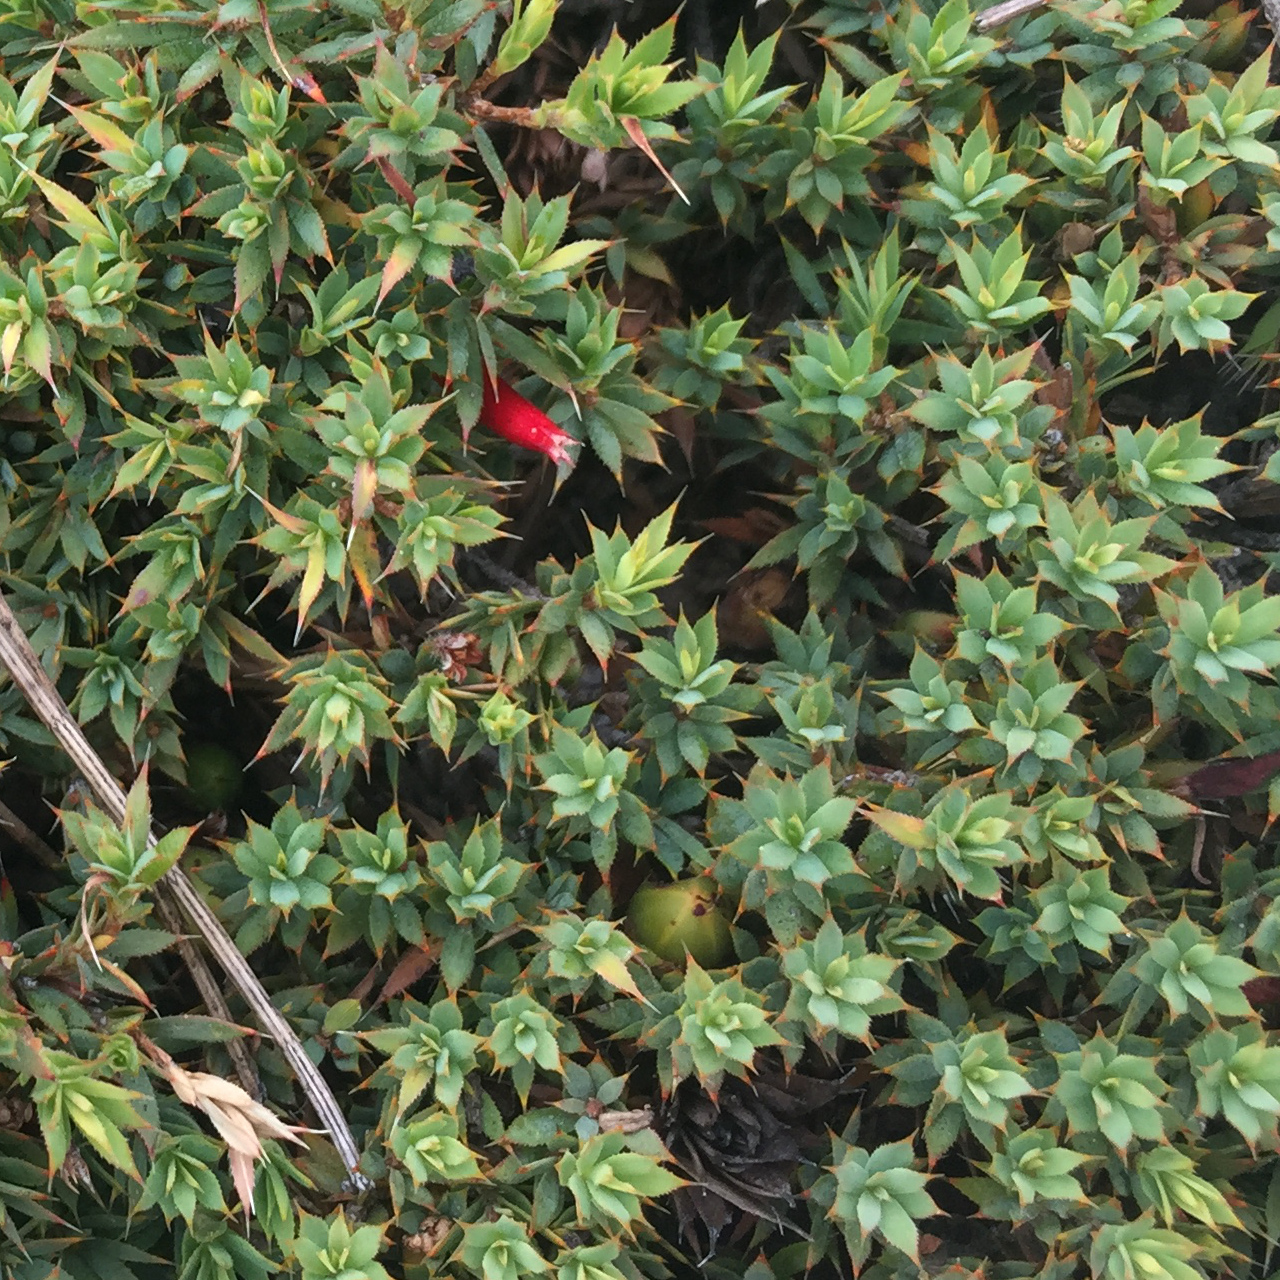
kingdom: Plantae
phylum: Tracheophyta
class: Magnoliopsida
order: Ericales
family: Ericaceae
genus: Styphelia
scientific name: Styphelia humifusa
